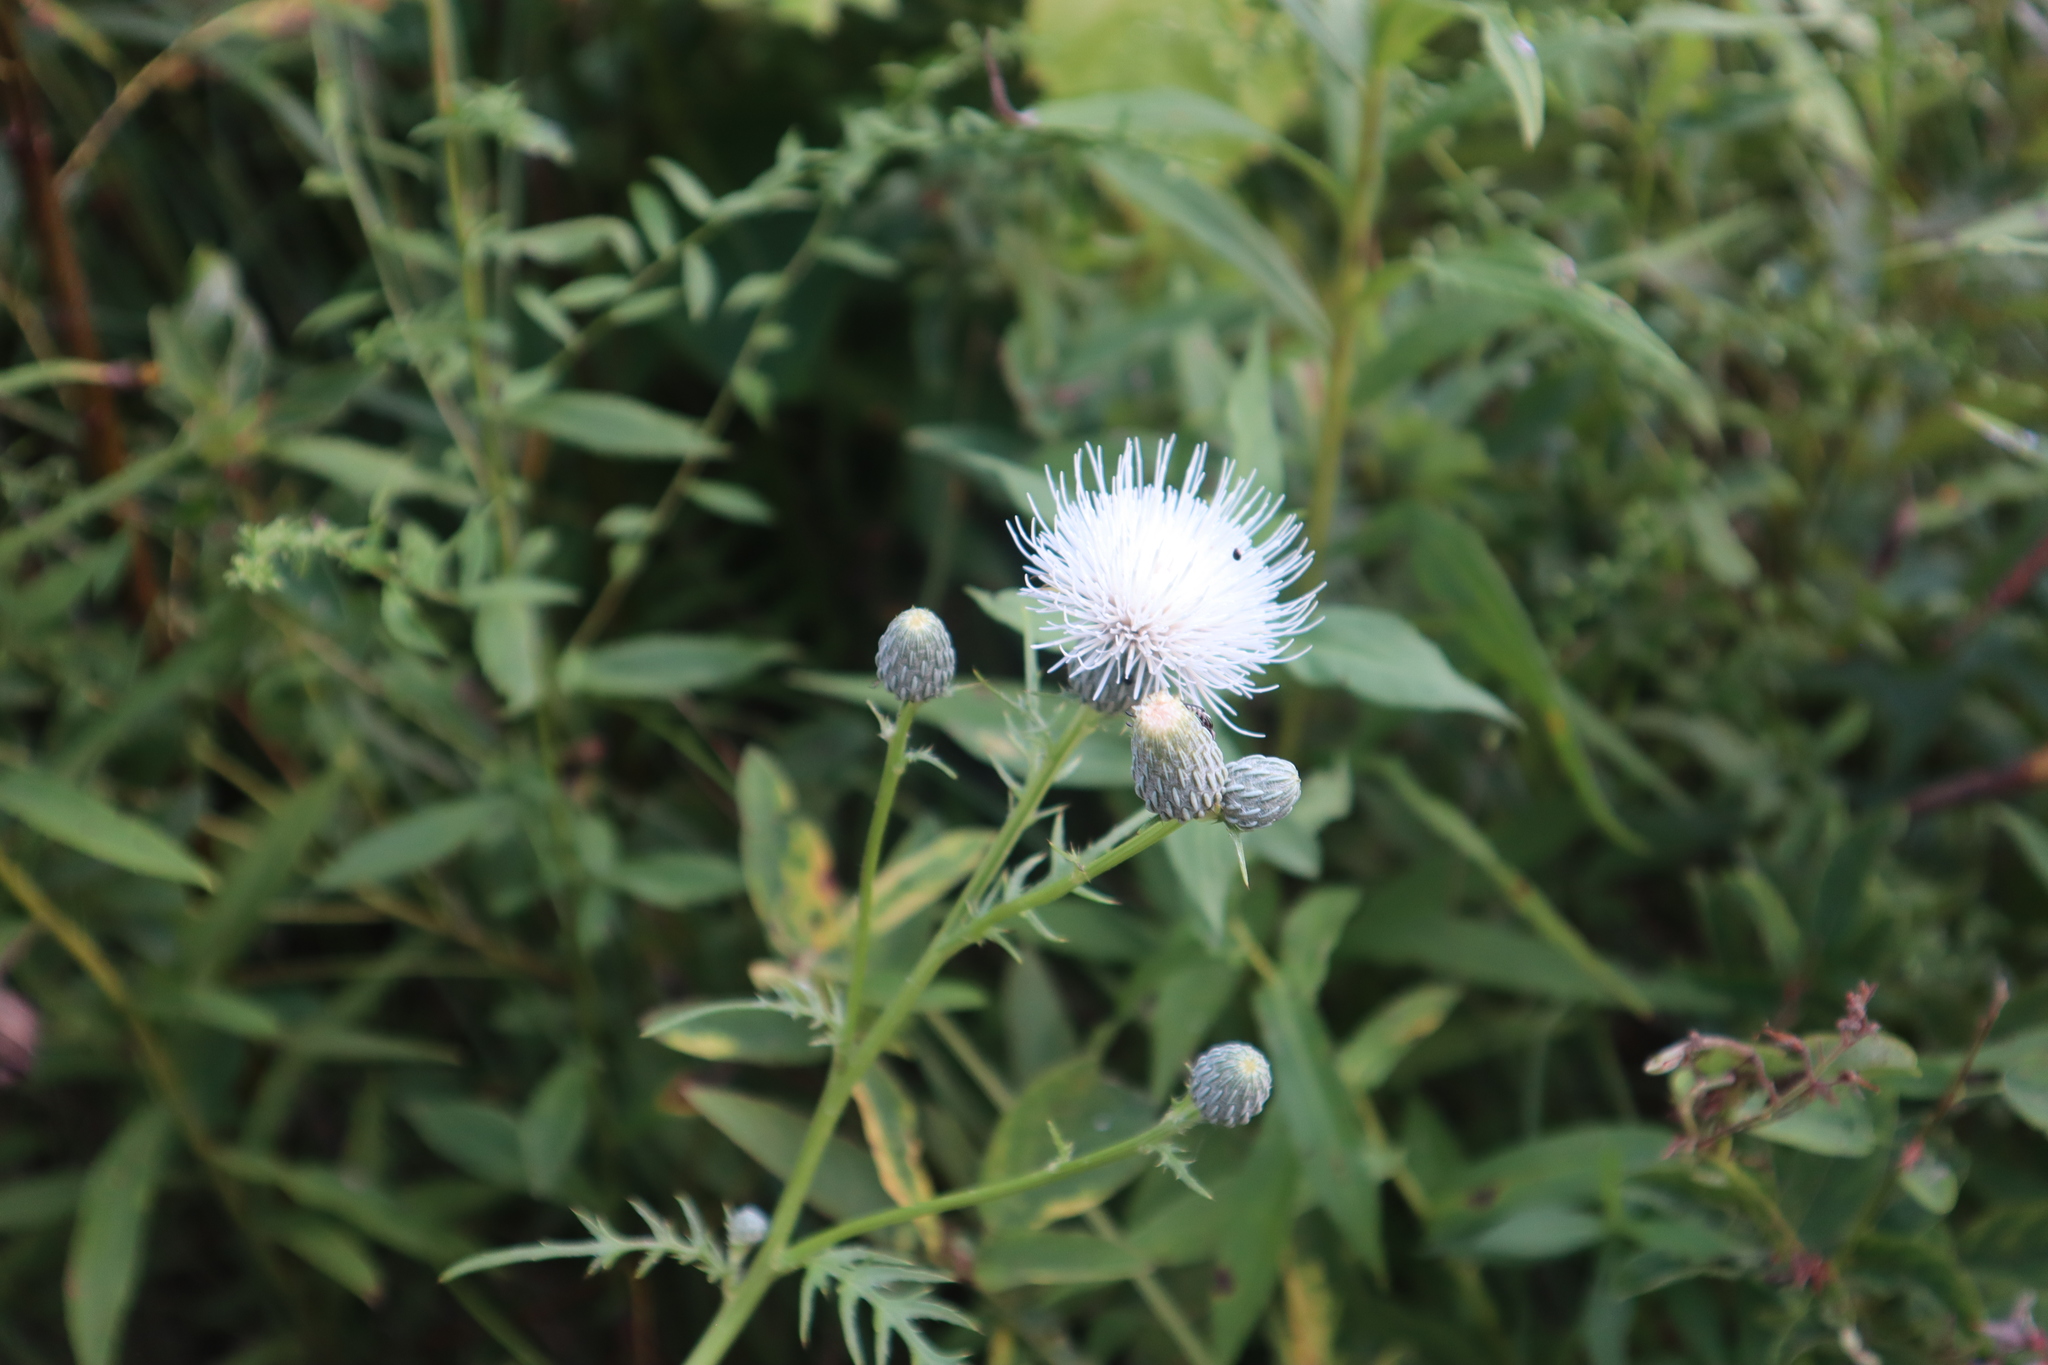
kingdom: Plantae
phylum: Tracheophyta
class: Magnoliopsida
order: Asterales
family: Asteraceae
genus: Cirsium
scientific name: Cirsium muticum
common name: Dunce-nettle
